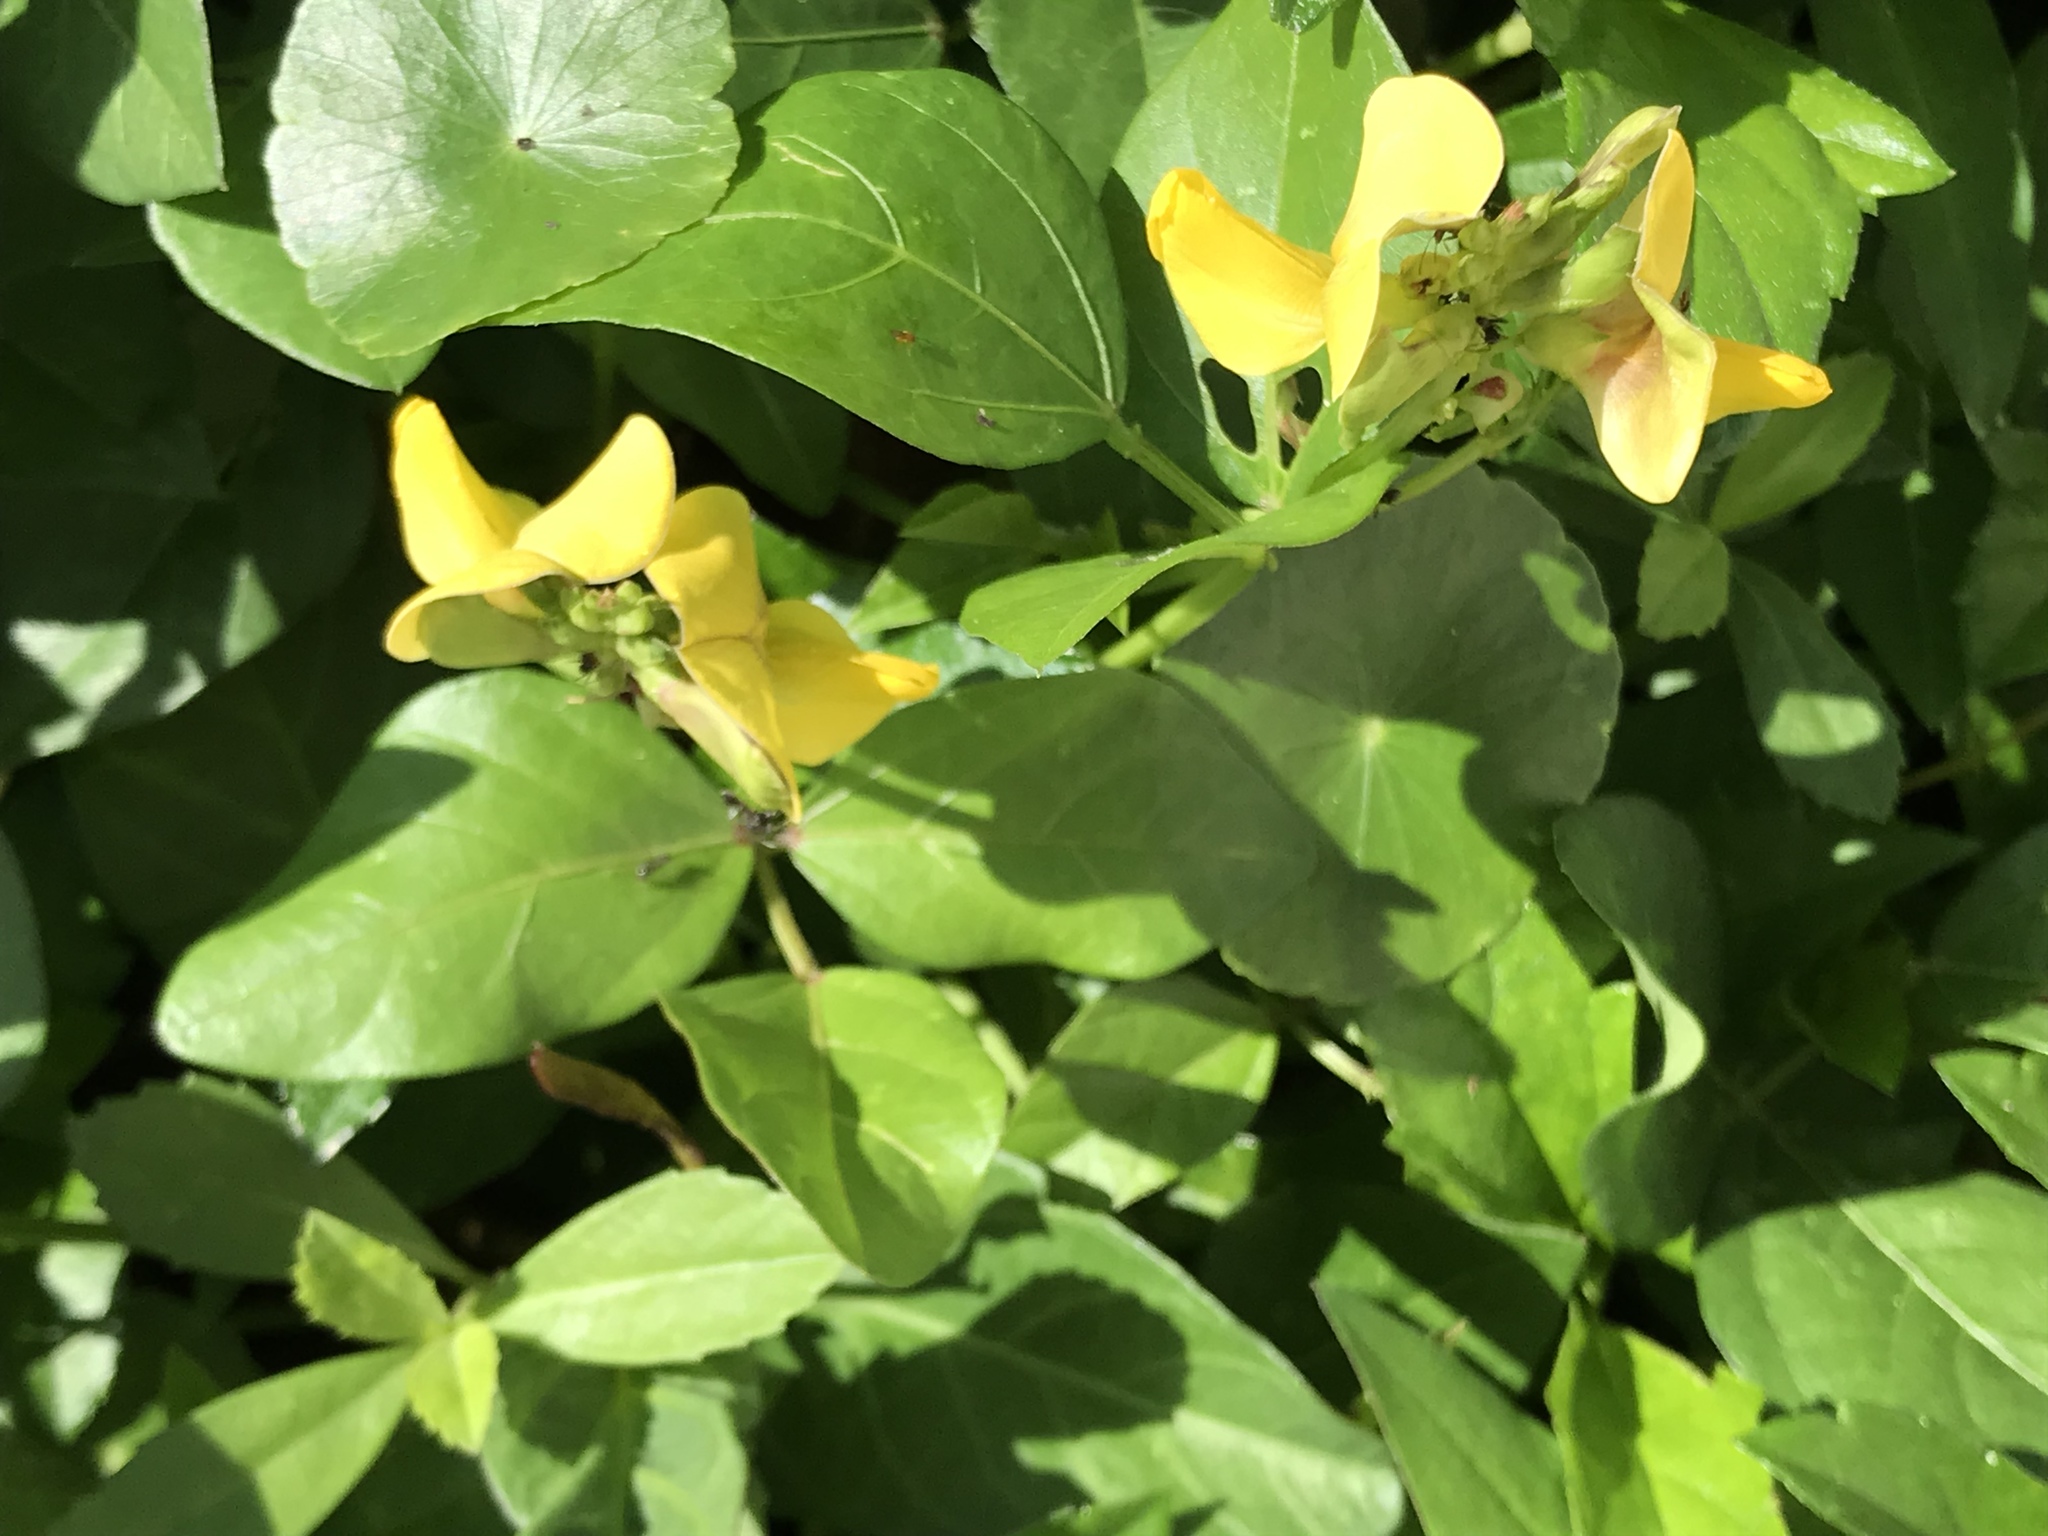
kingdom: Plantae
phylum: Tracheophyta
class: Magnoliopsida
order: Fabales
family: Fabaceae
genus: Vigna
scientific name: Vigna luteola
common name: Hairypod cowpea
